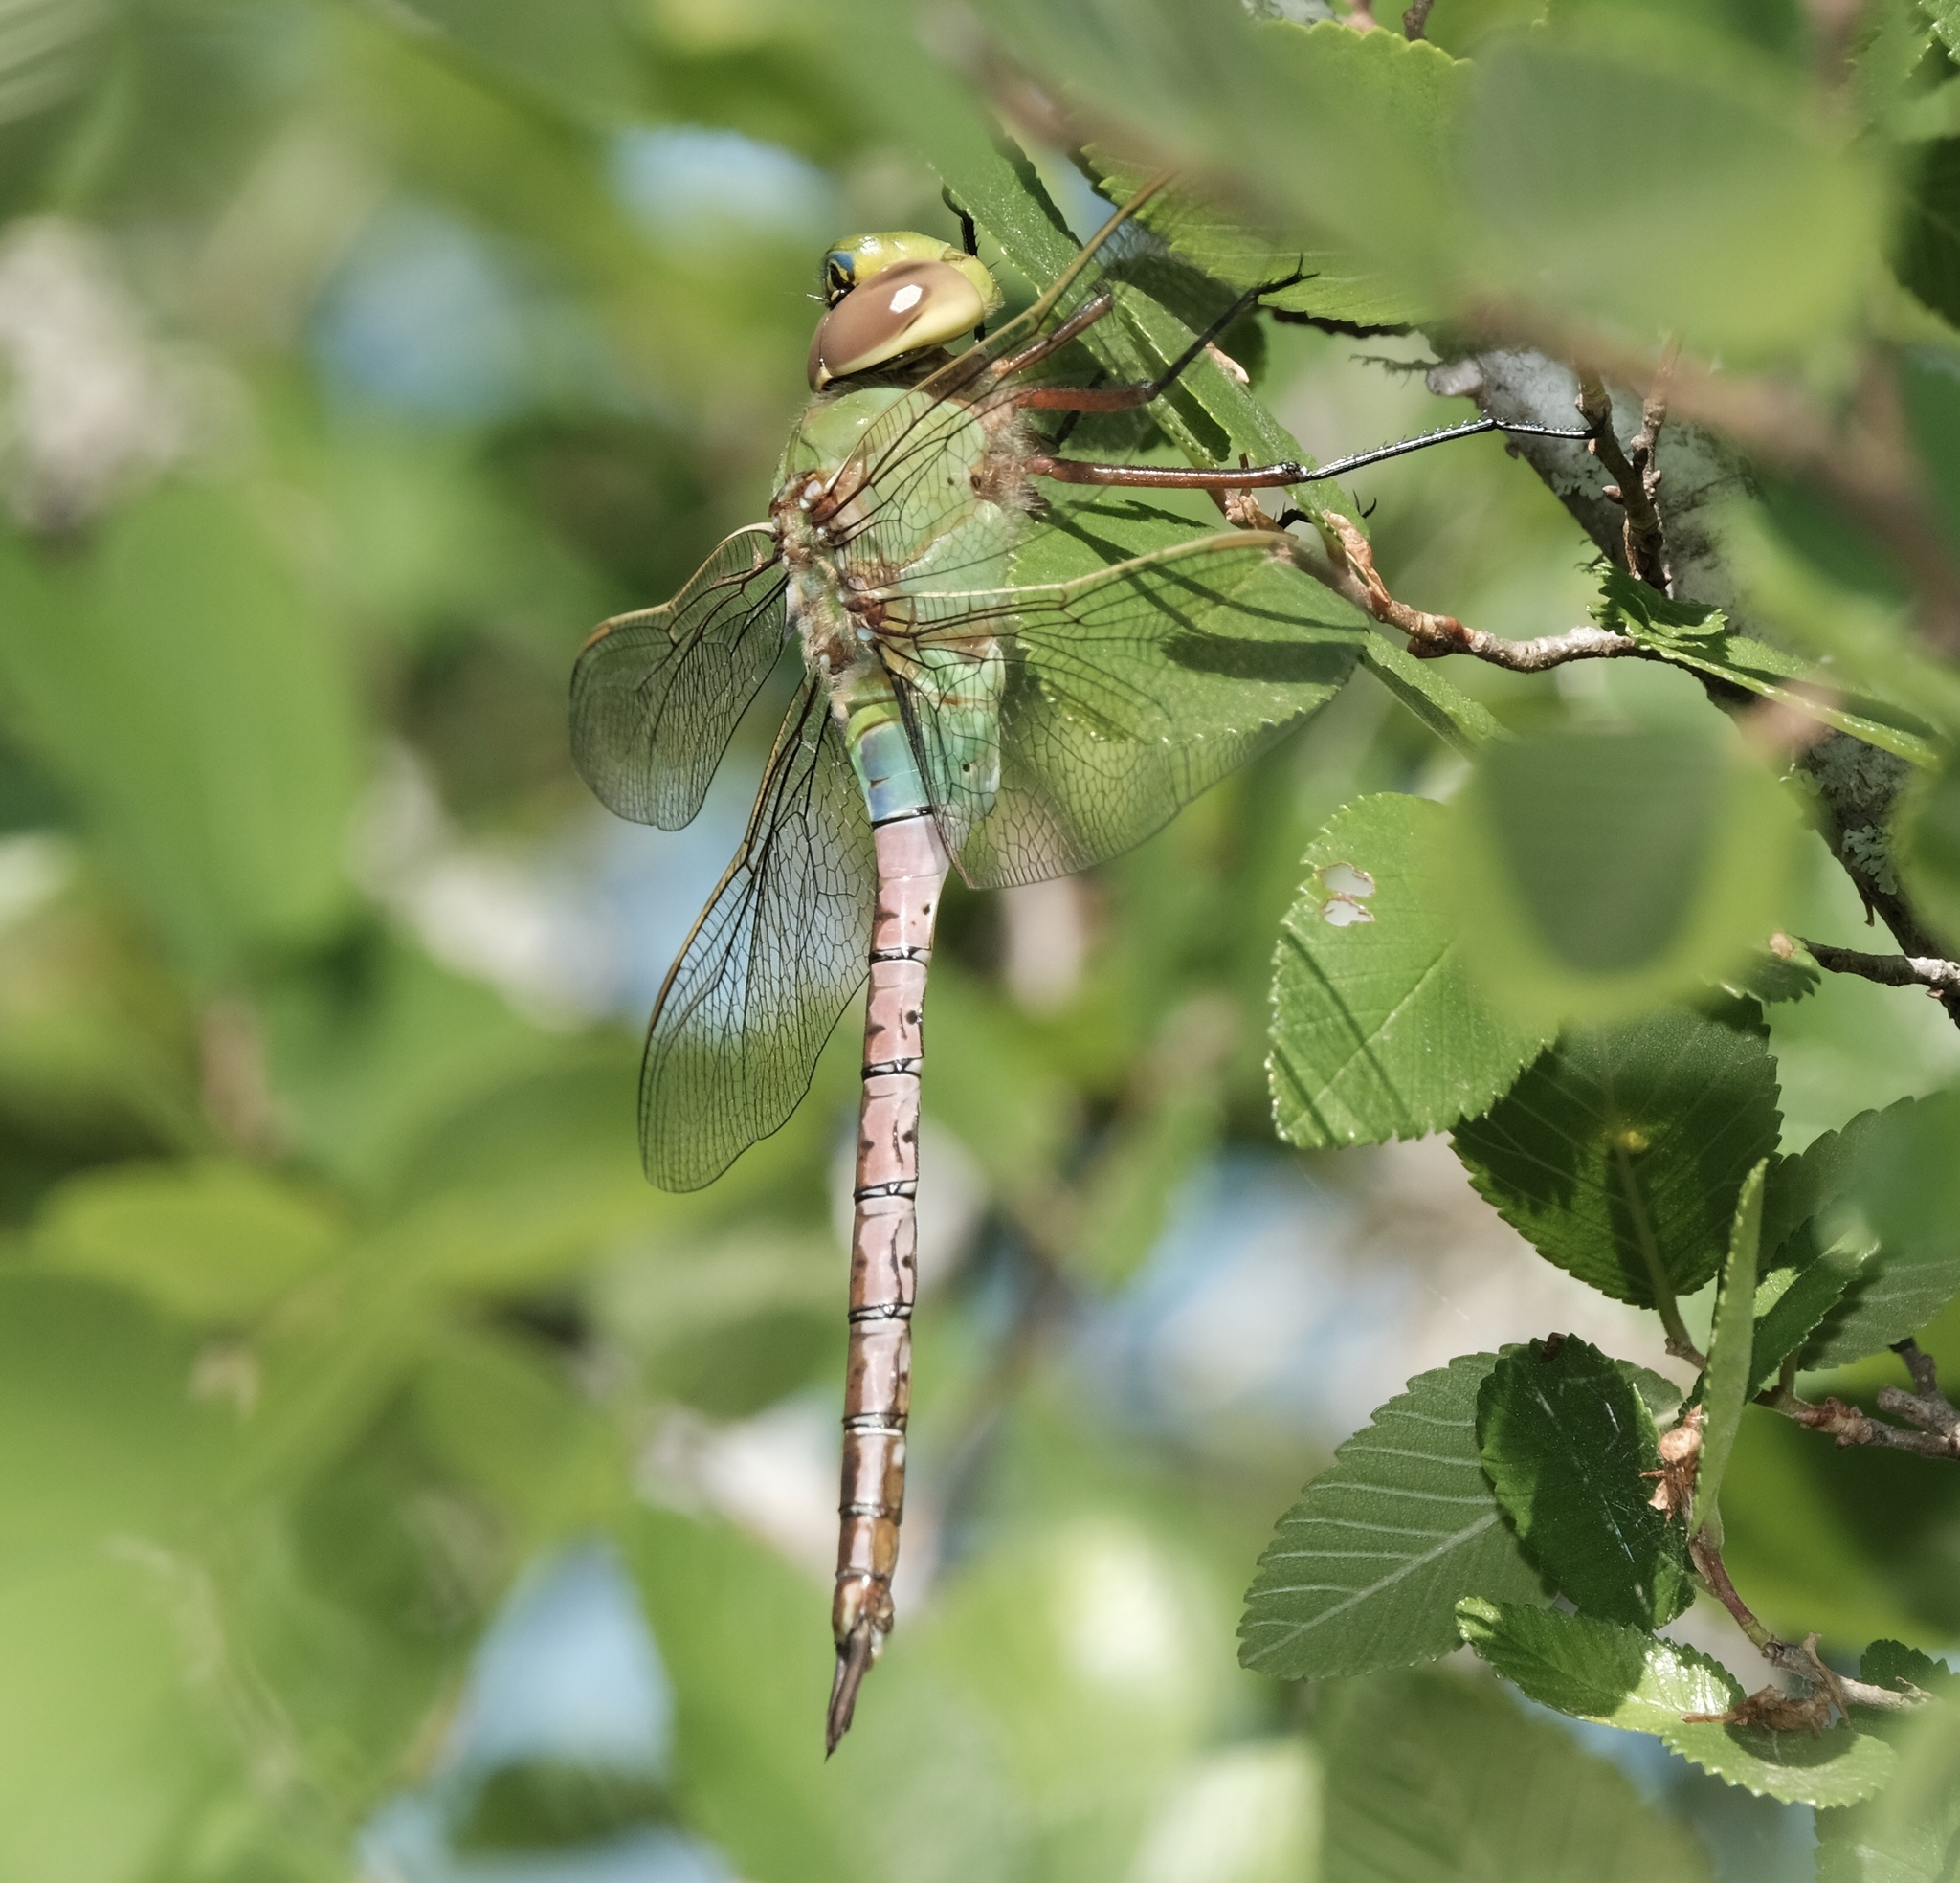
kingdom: Animalia
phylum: Arthropoda
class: Insecta
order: Odonata
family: Aeshnidae
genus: Anax
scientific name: Anax junius
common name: Common green darner
